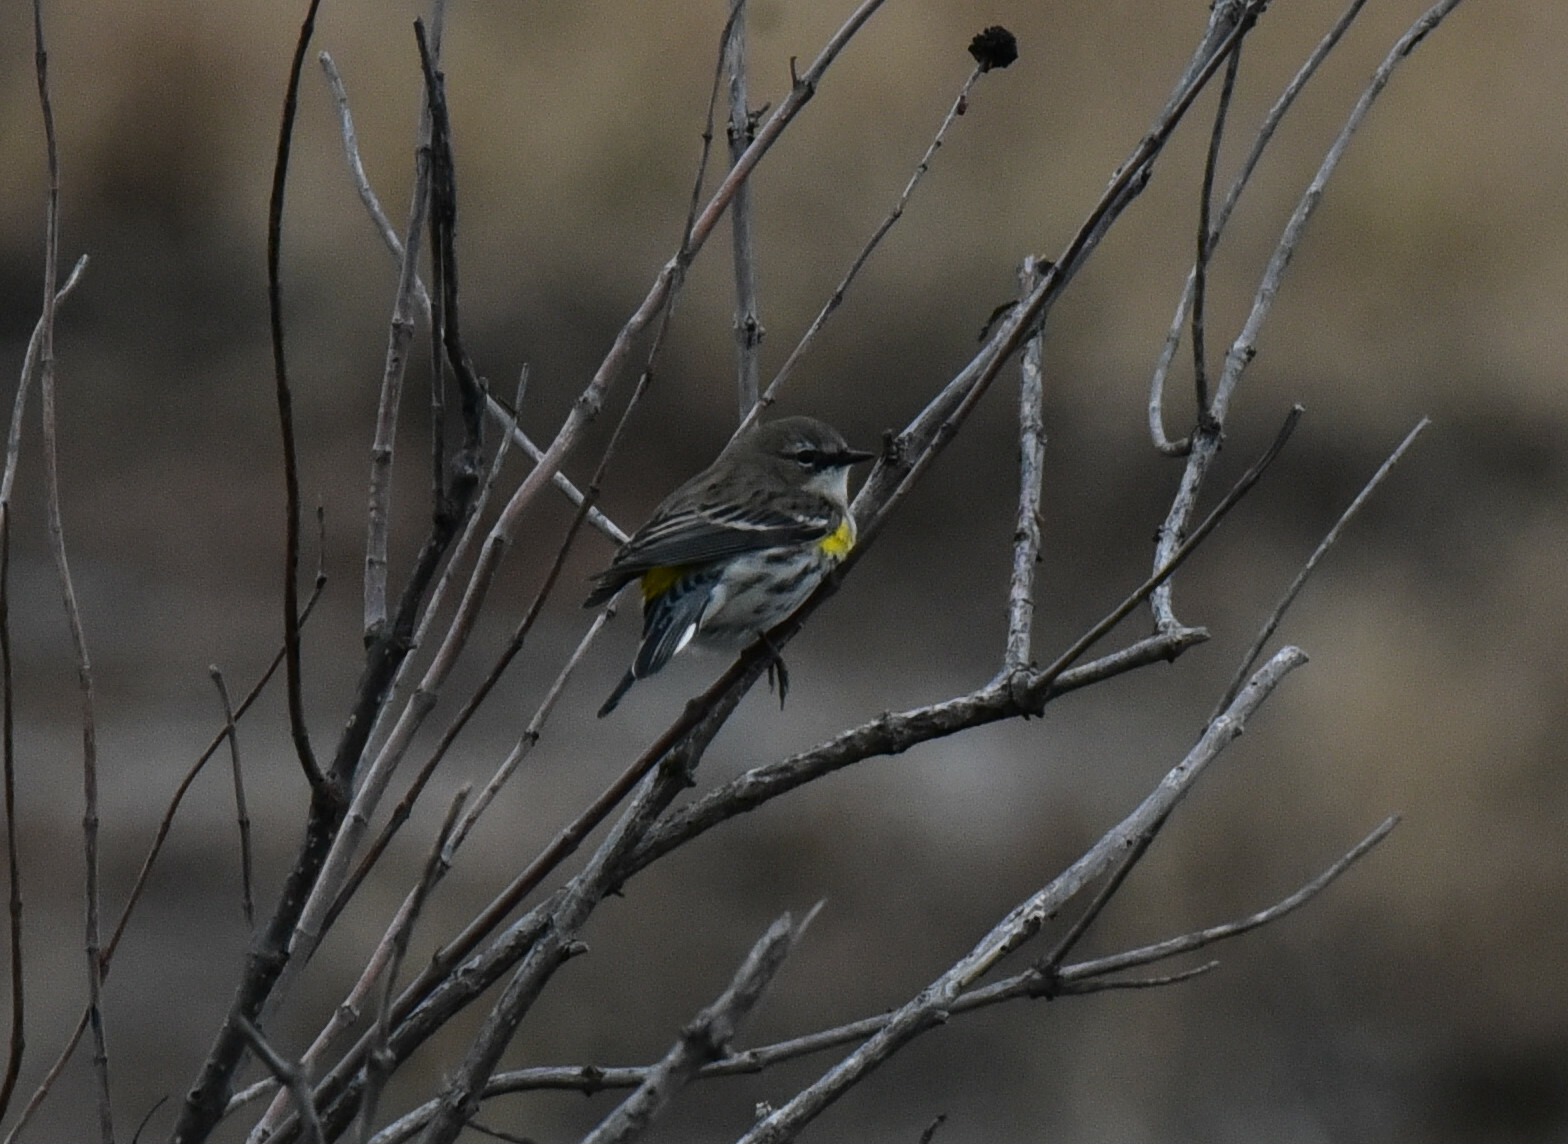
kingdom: Animalia
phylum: Chordata
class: Aves
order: Passeriformes
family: Parulidae
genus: Setophaga
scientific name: Setophaga coronata
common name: Myrtle warbler
